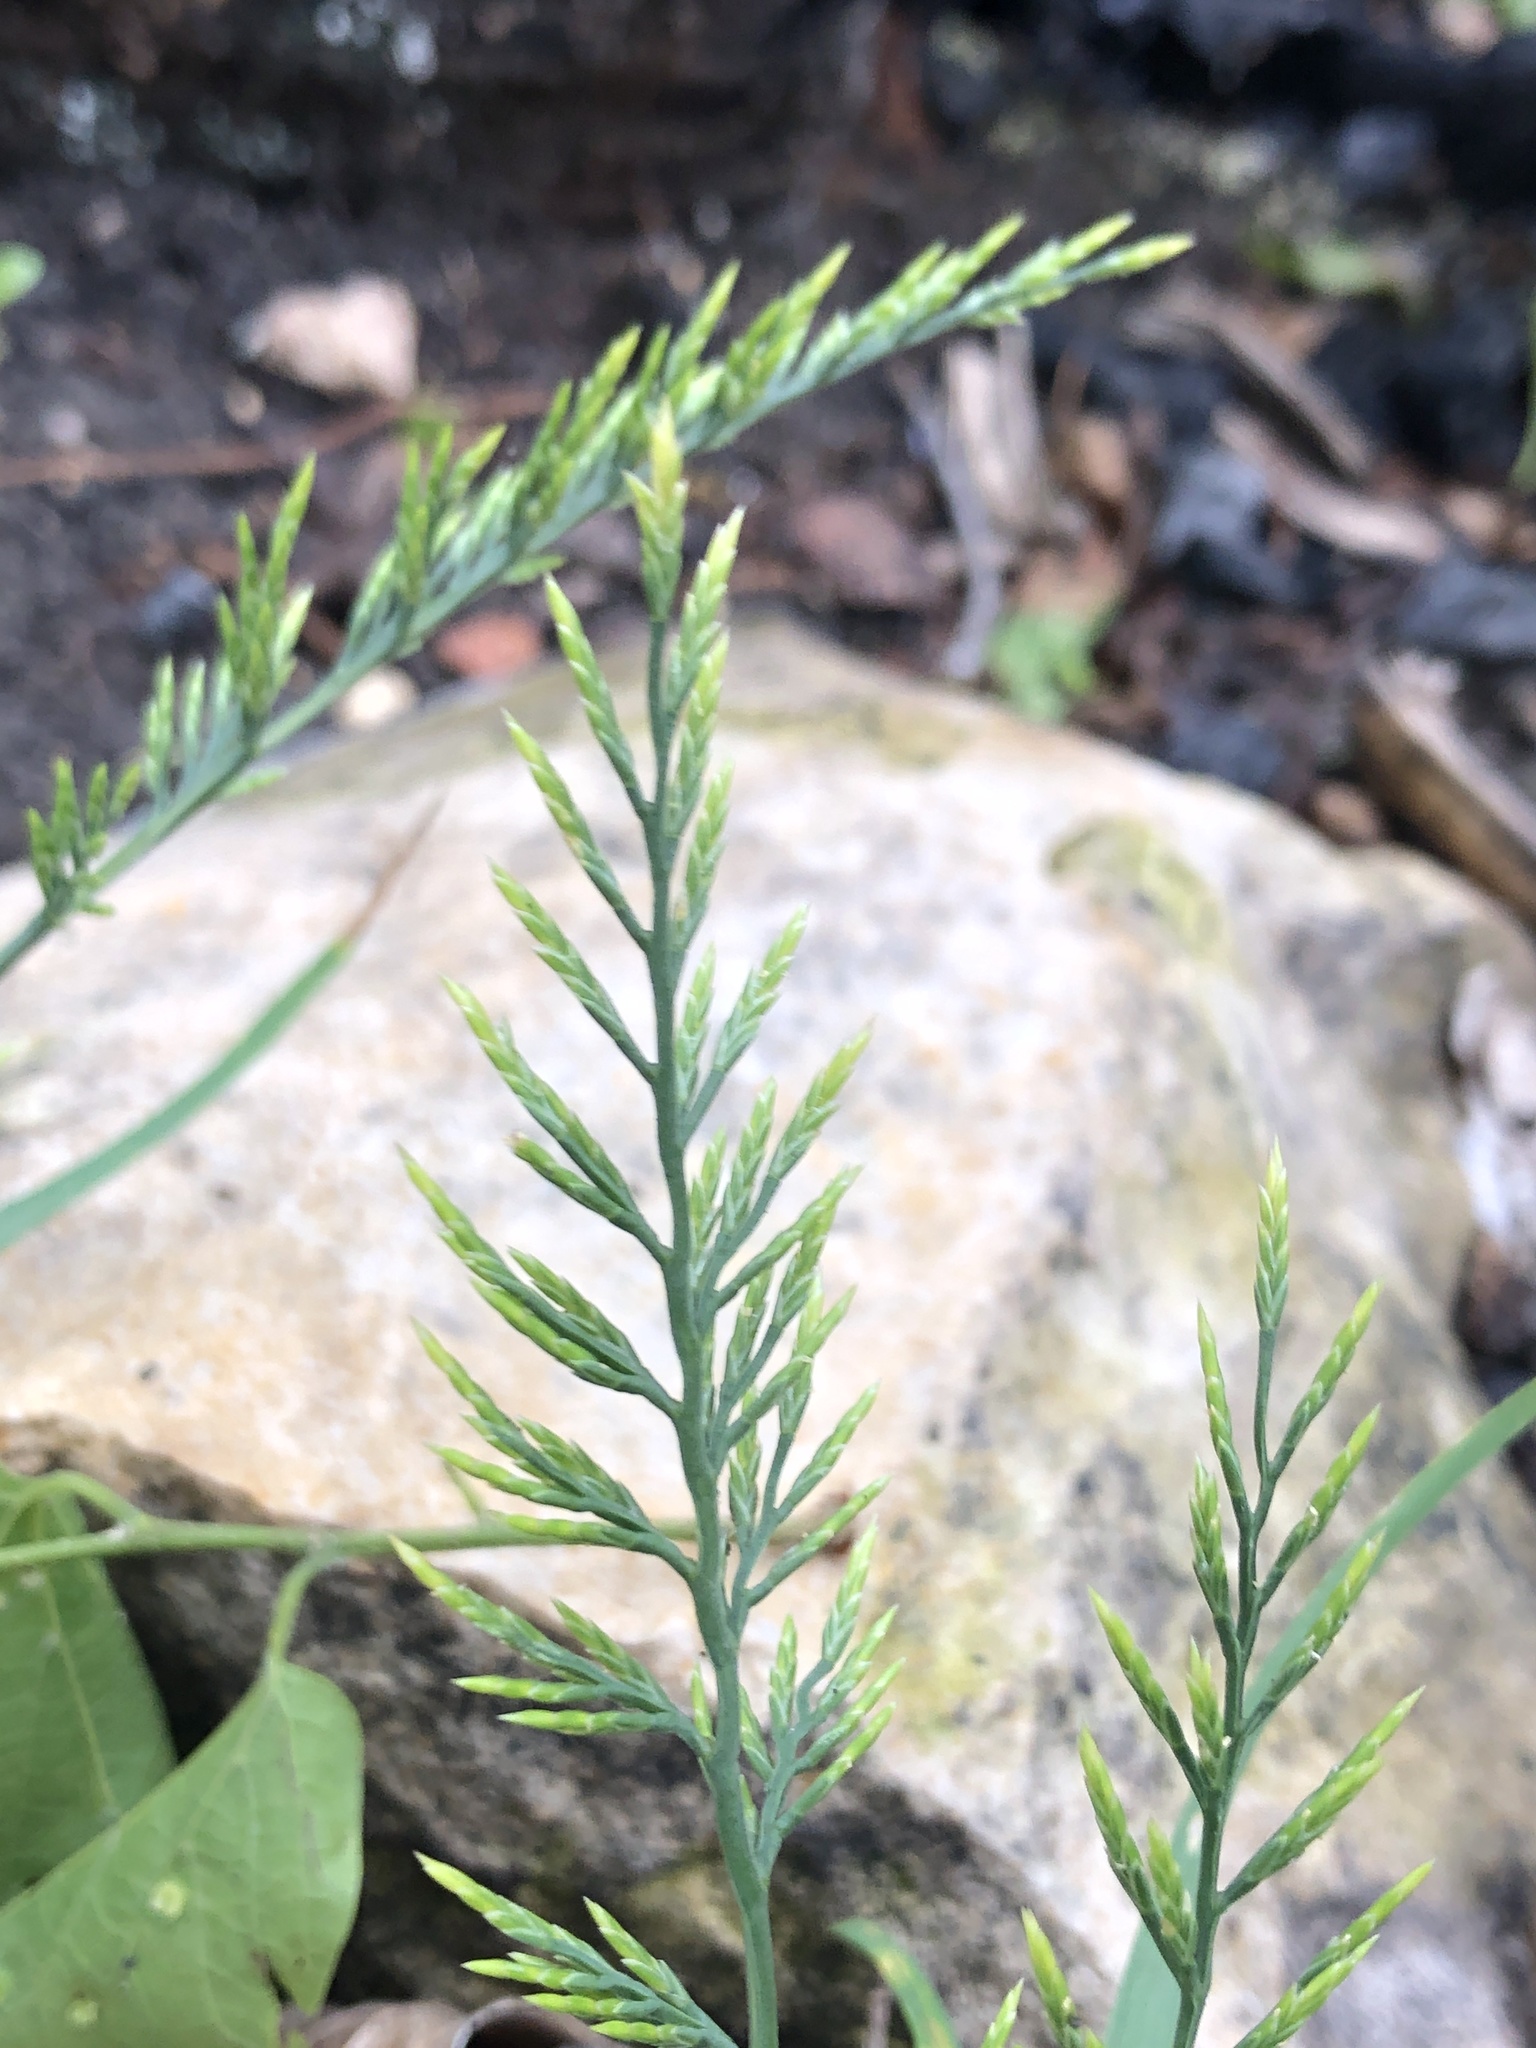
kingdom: Plantae
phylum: Tracheophyta
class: Liliopsida
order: Poales
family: Poaceae
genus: Catapodium
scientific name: Catapodium rigidum
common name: Fern-grass
